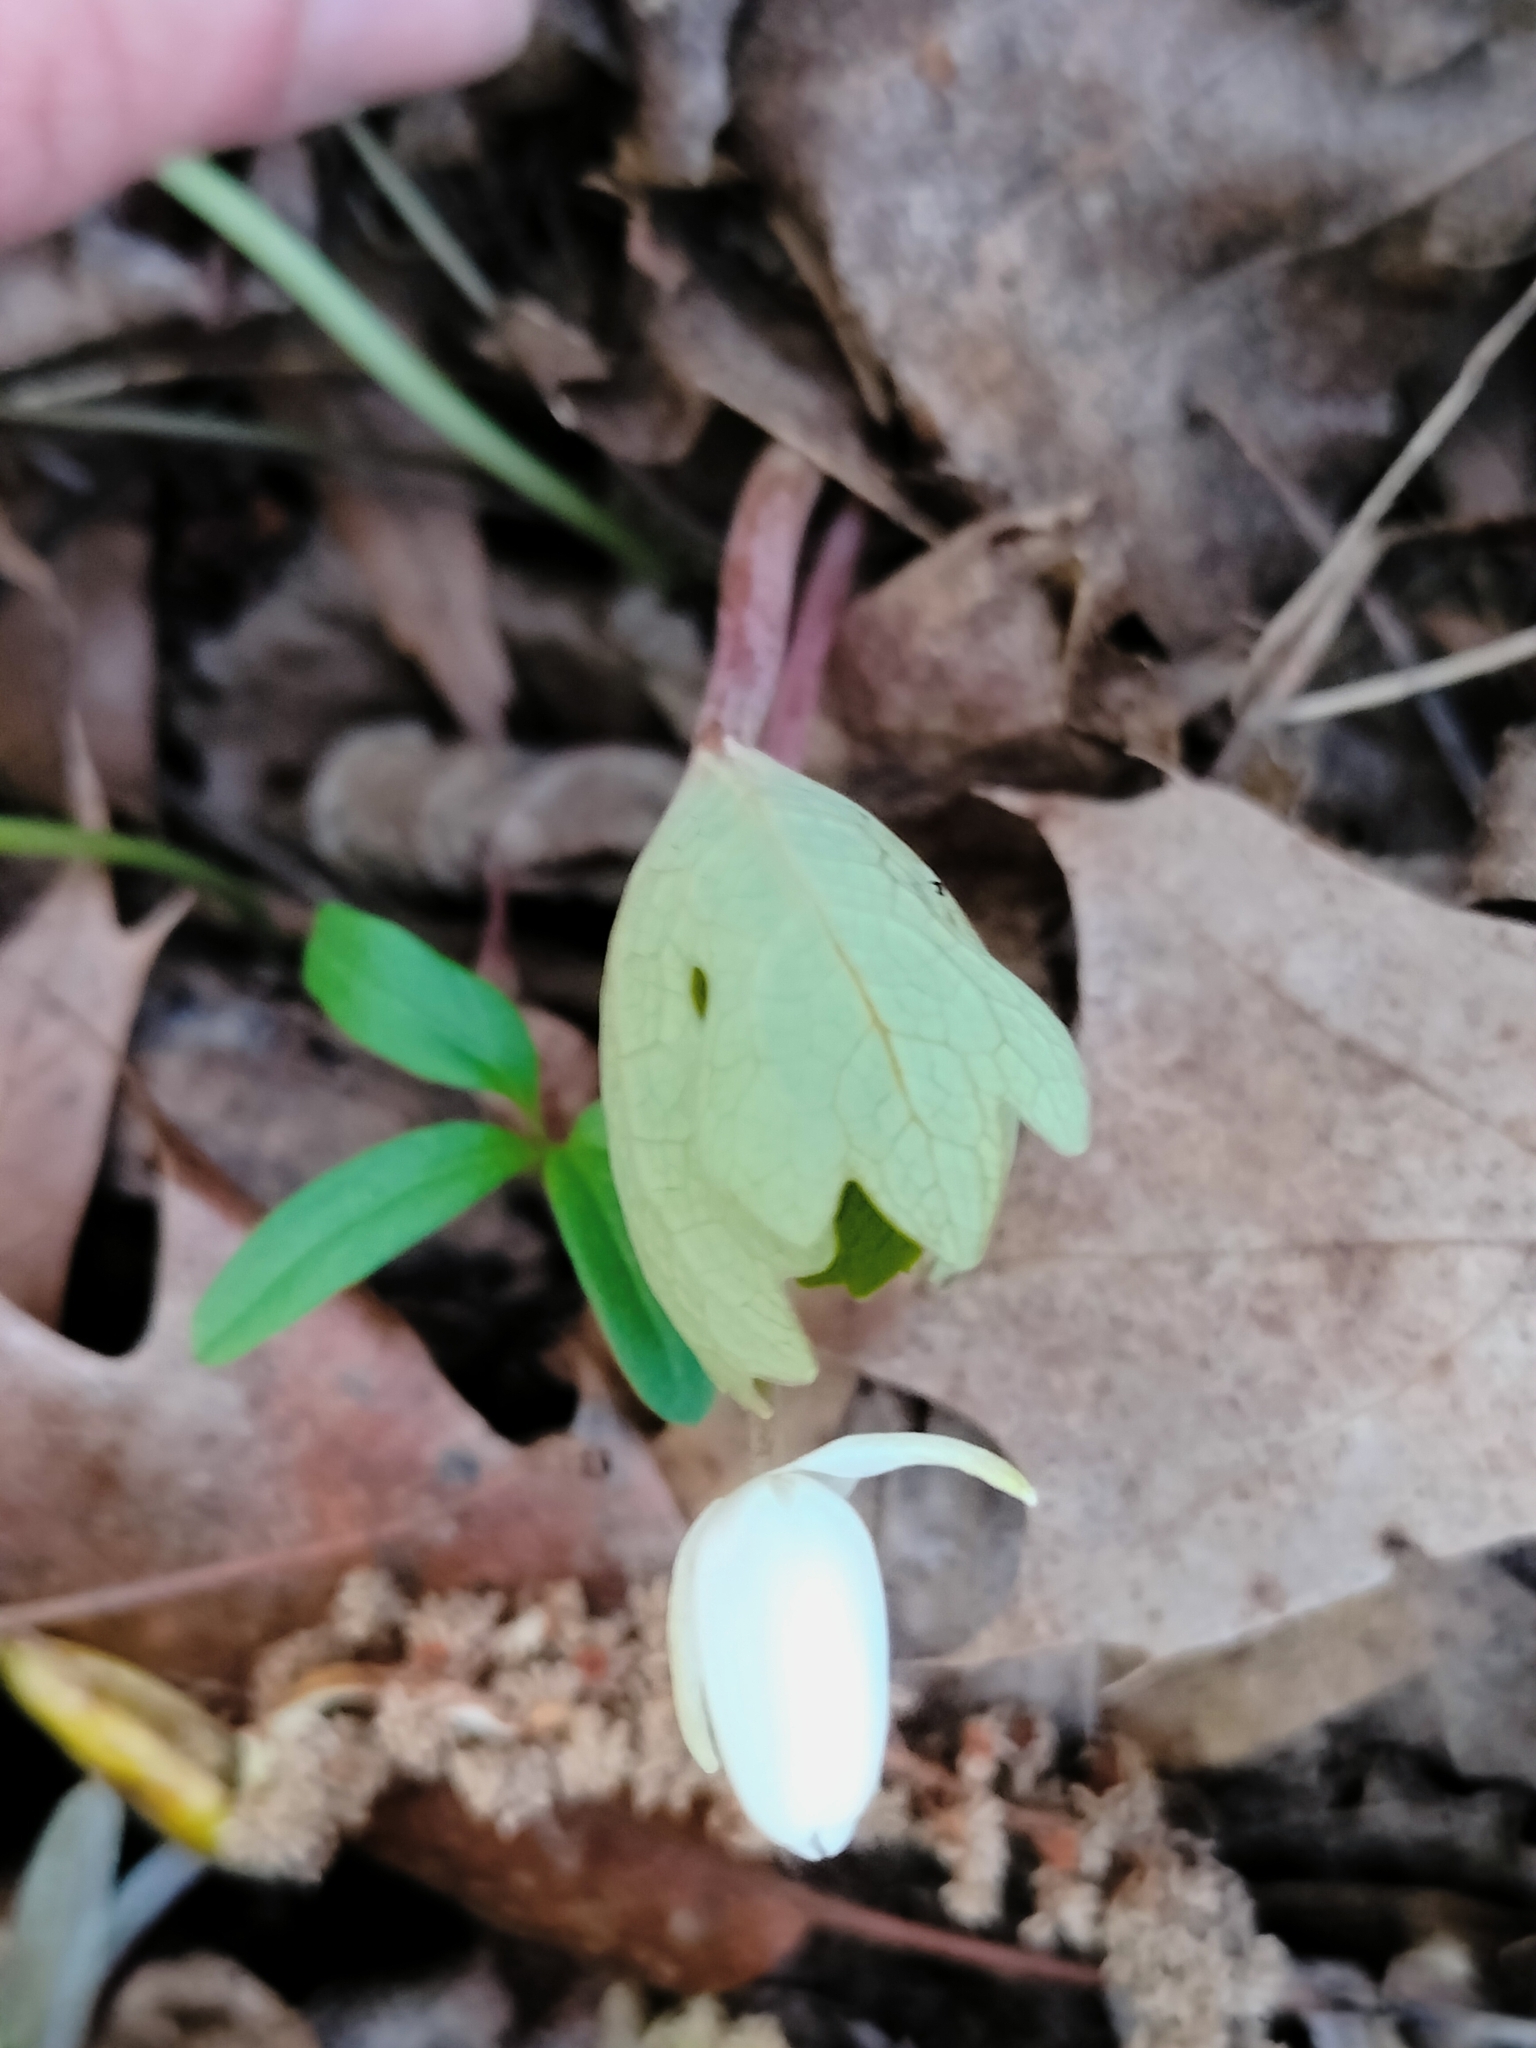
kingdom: Plantae
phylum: Tracheophyta
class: Magnoliopsida
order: Ranunculales
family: Papaveraceae
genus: Sanguinaria
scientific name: Sanguinaria canadensis
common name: Bloodroot
